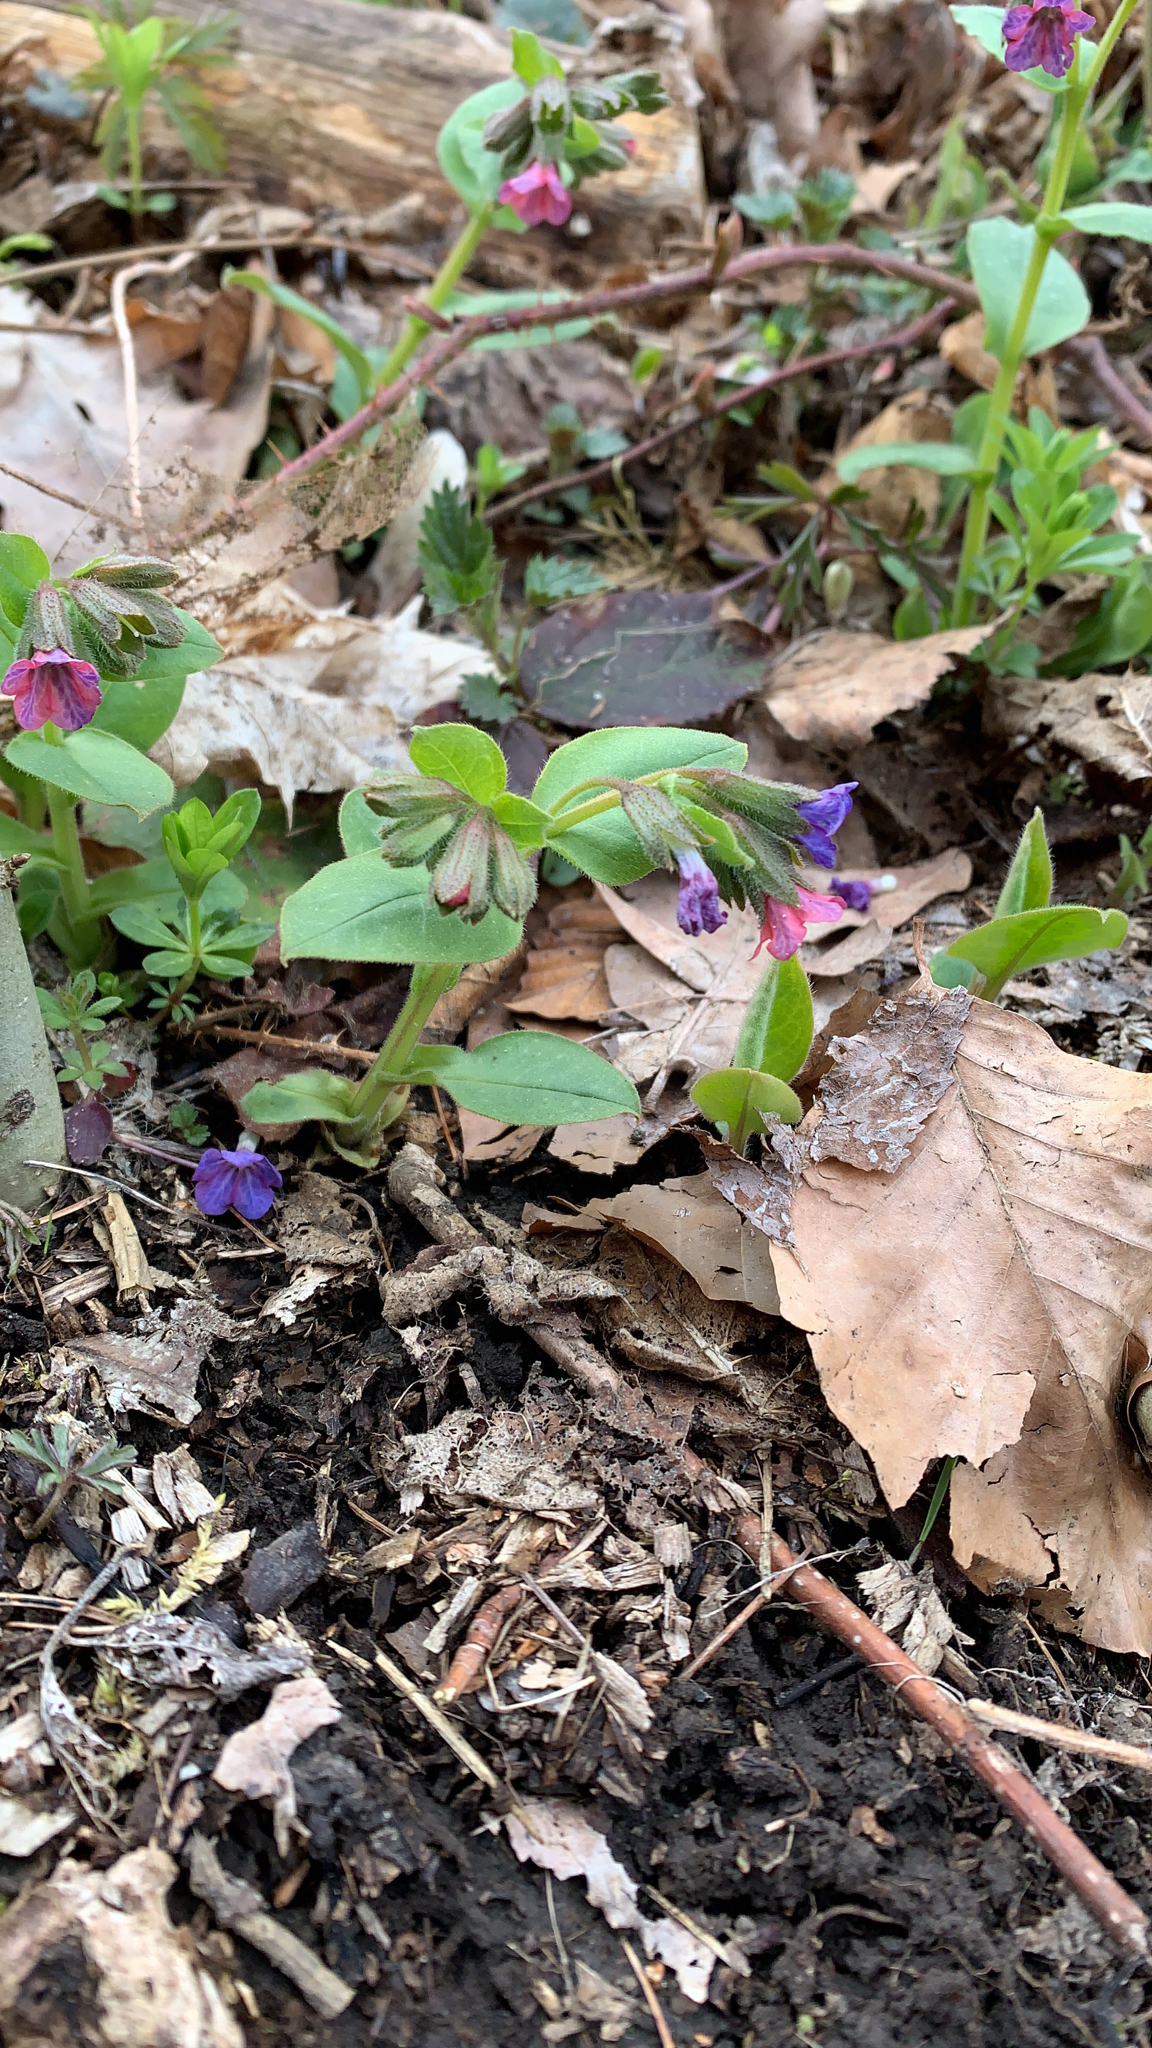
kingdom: Plantae
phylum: Tracheophyta
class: Magnoliopsida
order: Boraginales
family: Boraginaceae
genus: Pulmonaria
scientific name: Pulmonaria obscura
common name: Suffolk lungwort
